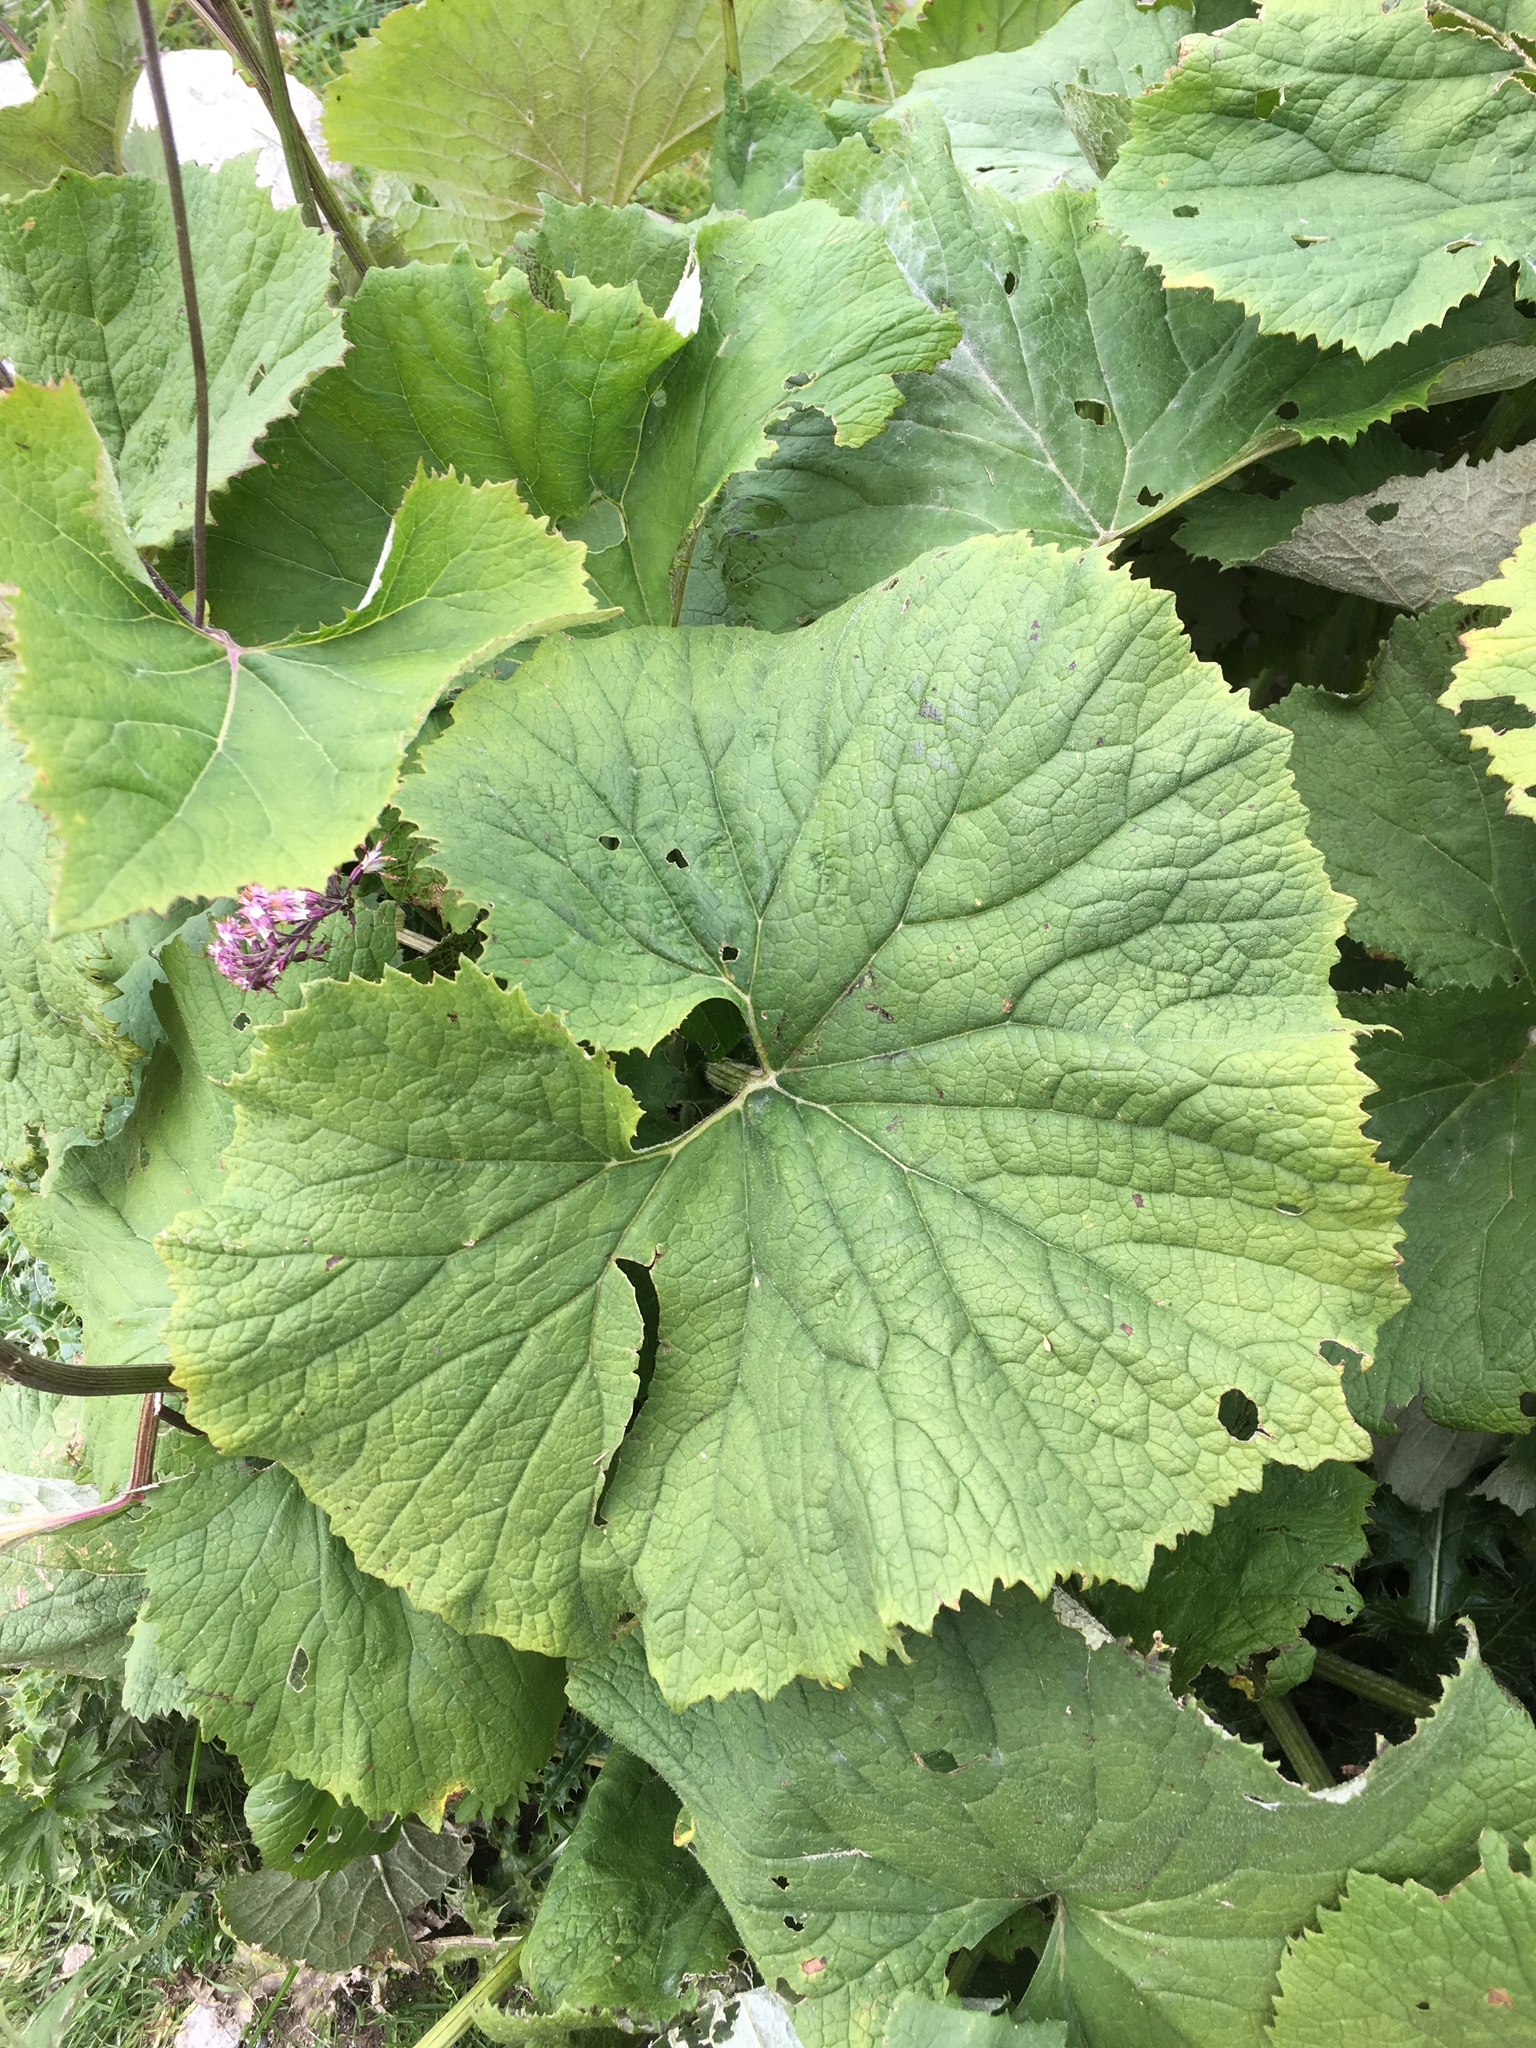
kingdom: Plantae
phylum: Tracheophyta
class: Magnoliopsida
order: Asterales
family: Asteraceae
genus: Adenostyles
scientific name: Adenostyles alliariae
